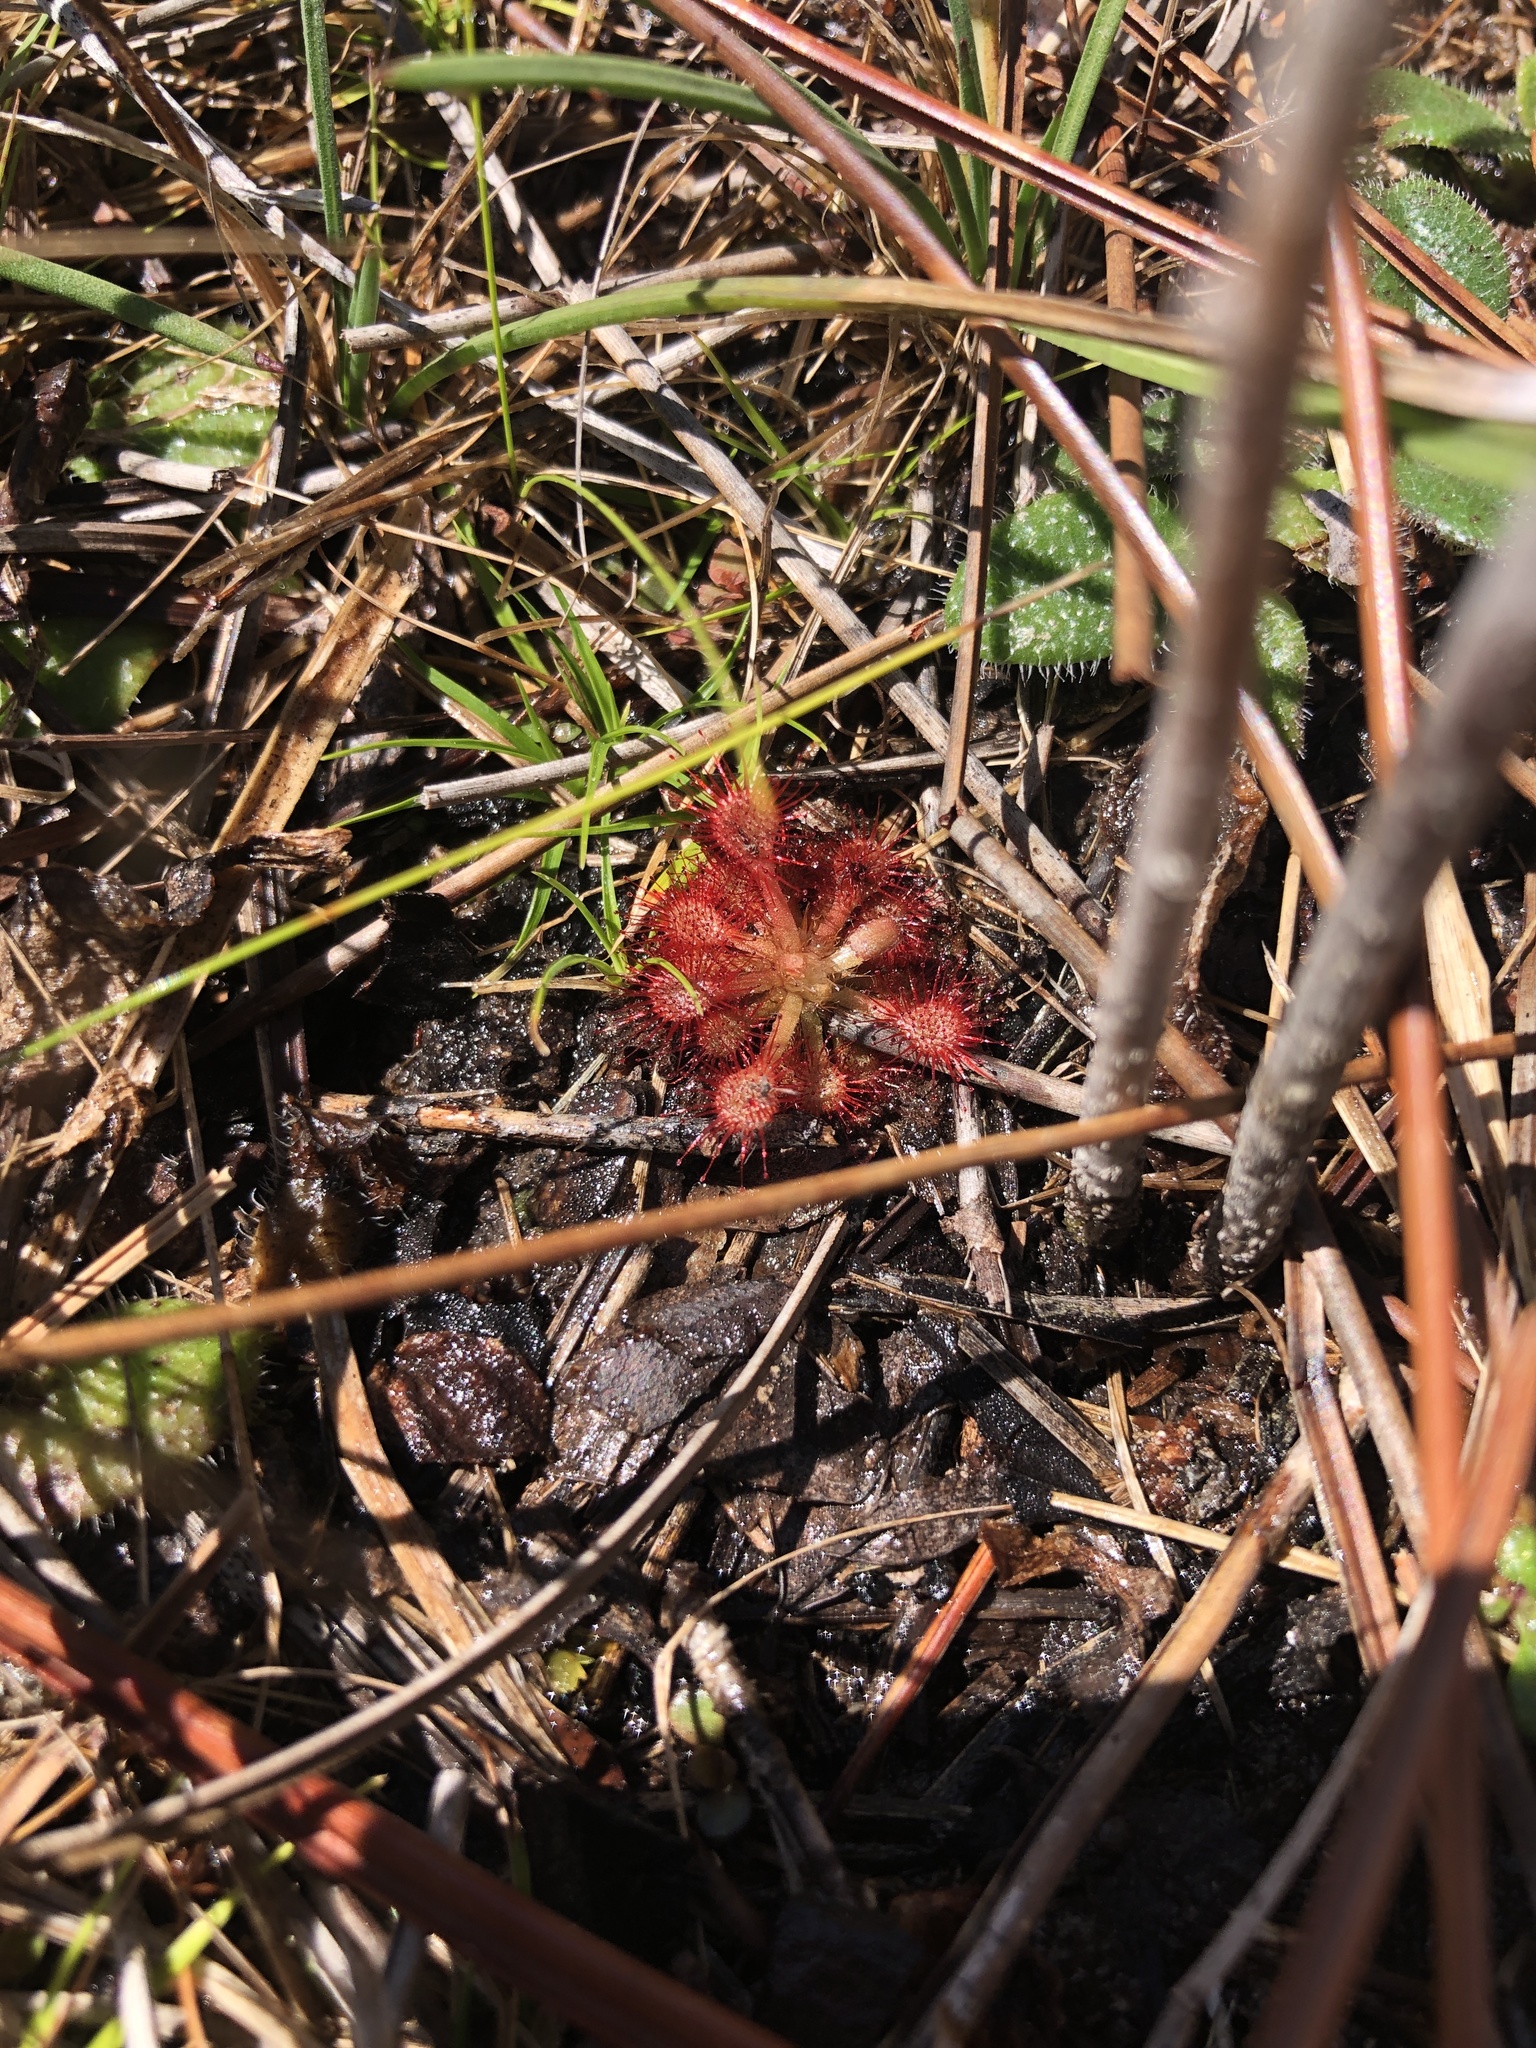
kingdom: Plantae
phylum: Tracheophyta
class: Magnoliopsida
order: Caryophyllales
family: Droseraceae
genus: Drosera
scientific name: Drosera capillaris
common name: Pink sundew
